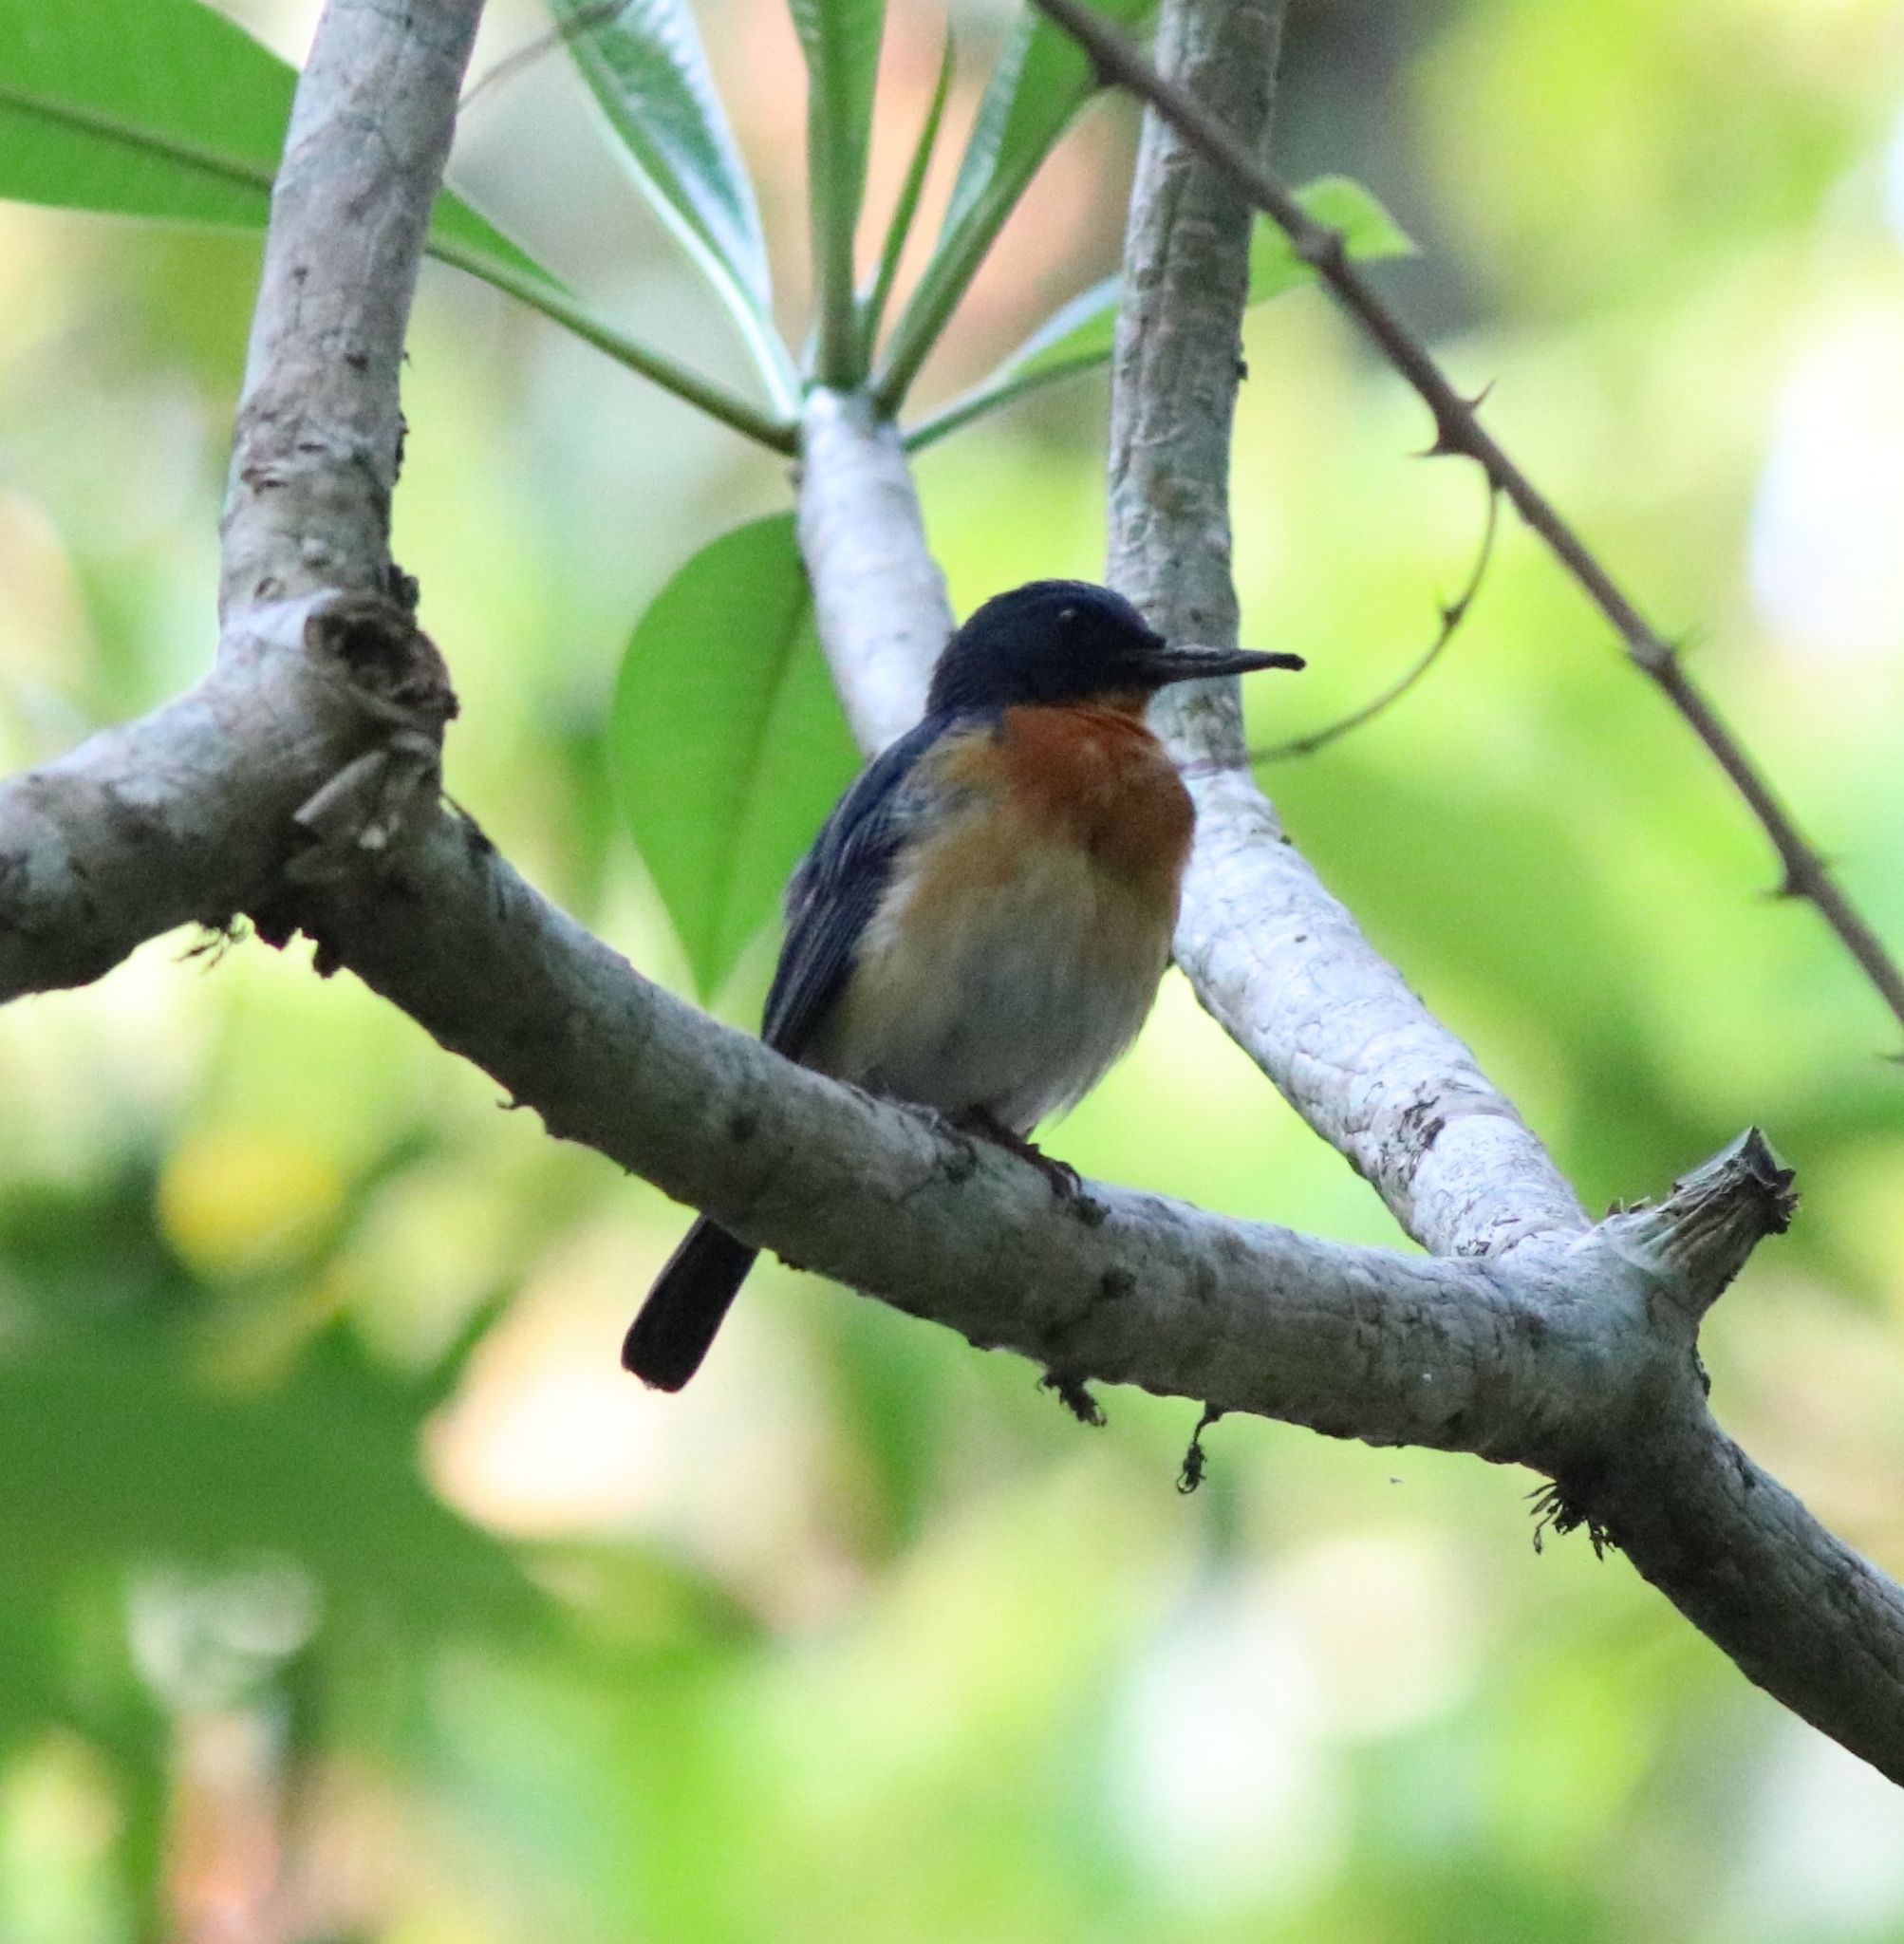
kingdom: Animalia
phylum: Chordata
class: Aves
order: Passeriformes
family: Muscicapidae
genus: Cyornis
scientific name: Cyornis tickelliae
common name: Tickell's blue flycatcher
